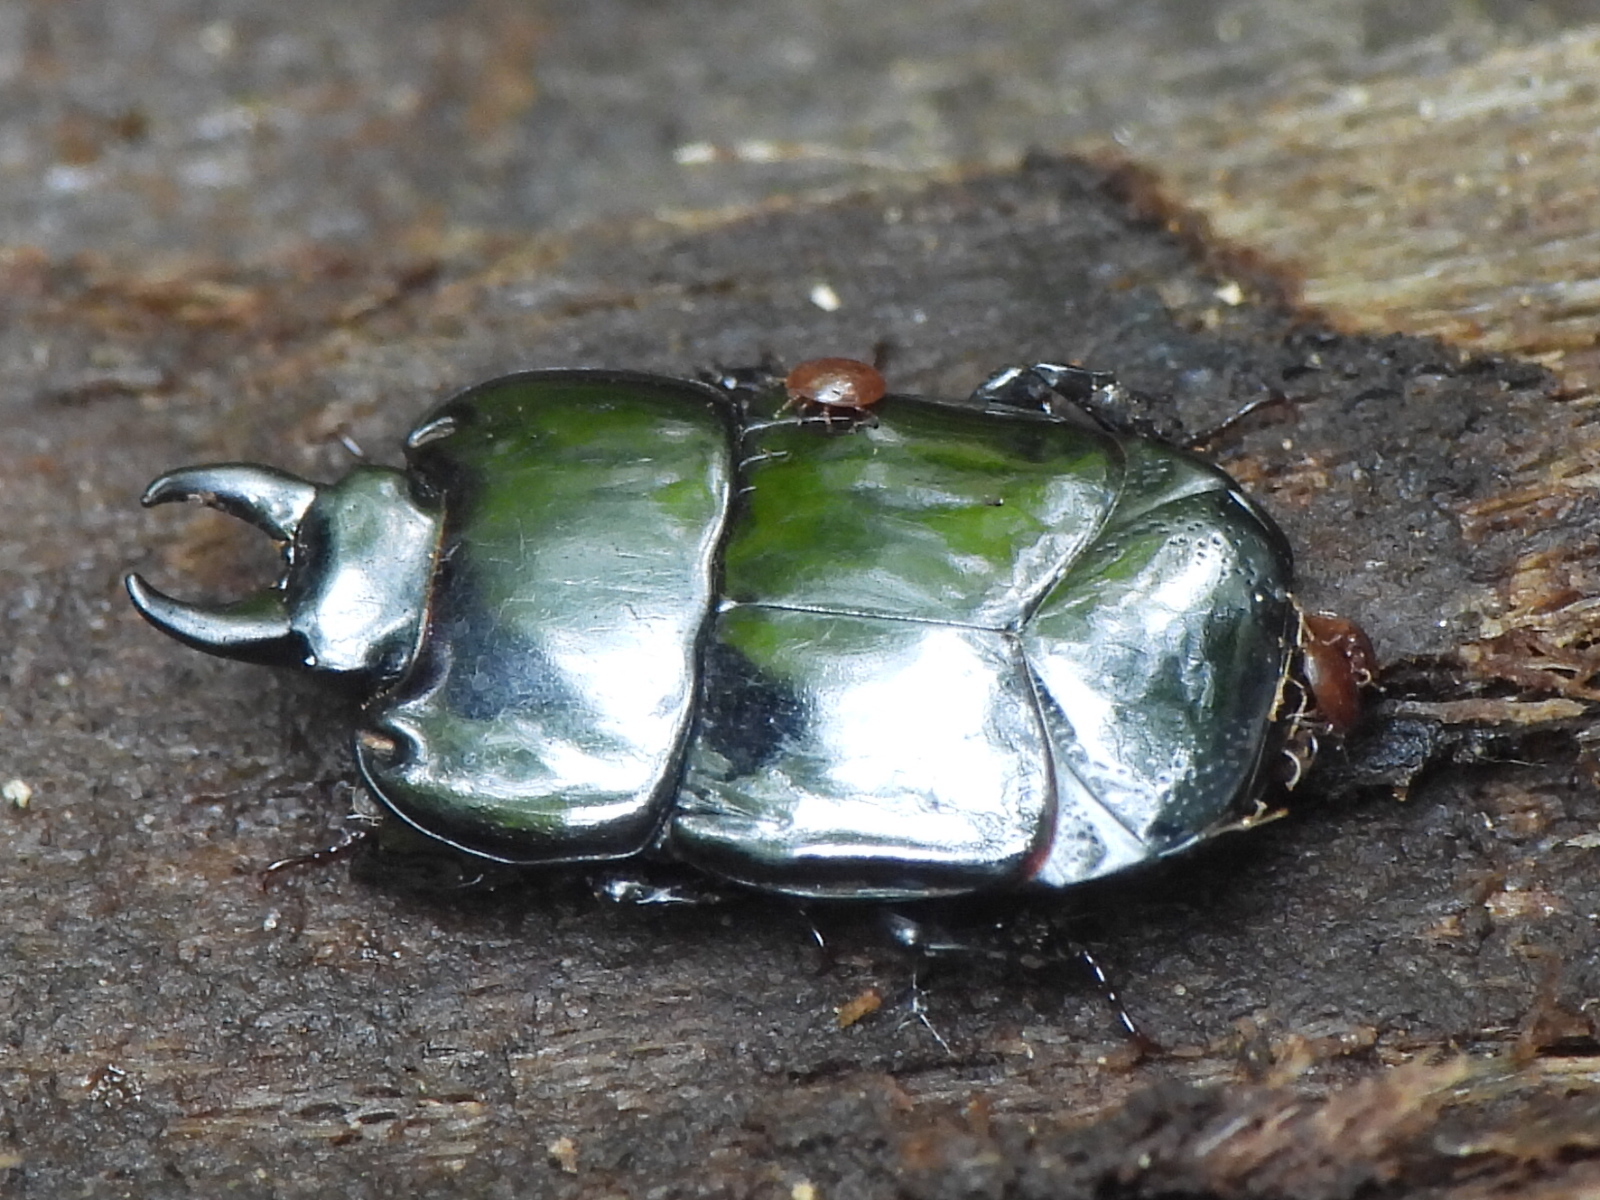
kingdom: Animalia
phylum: Arthropoda
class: Insecta
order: Coleoptera
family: Histeridae
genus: Hololepta
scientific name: Hololepta aequalis
